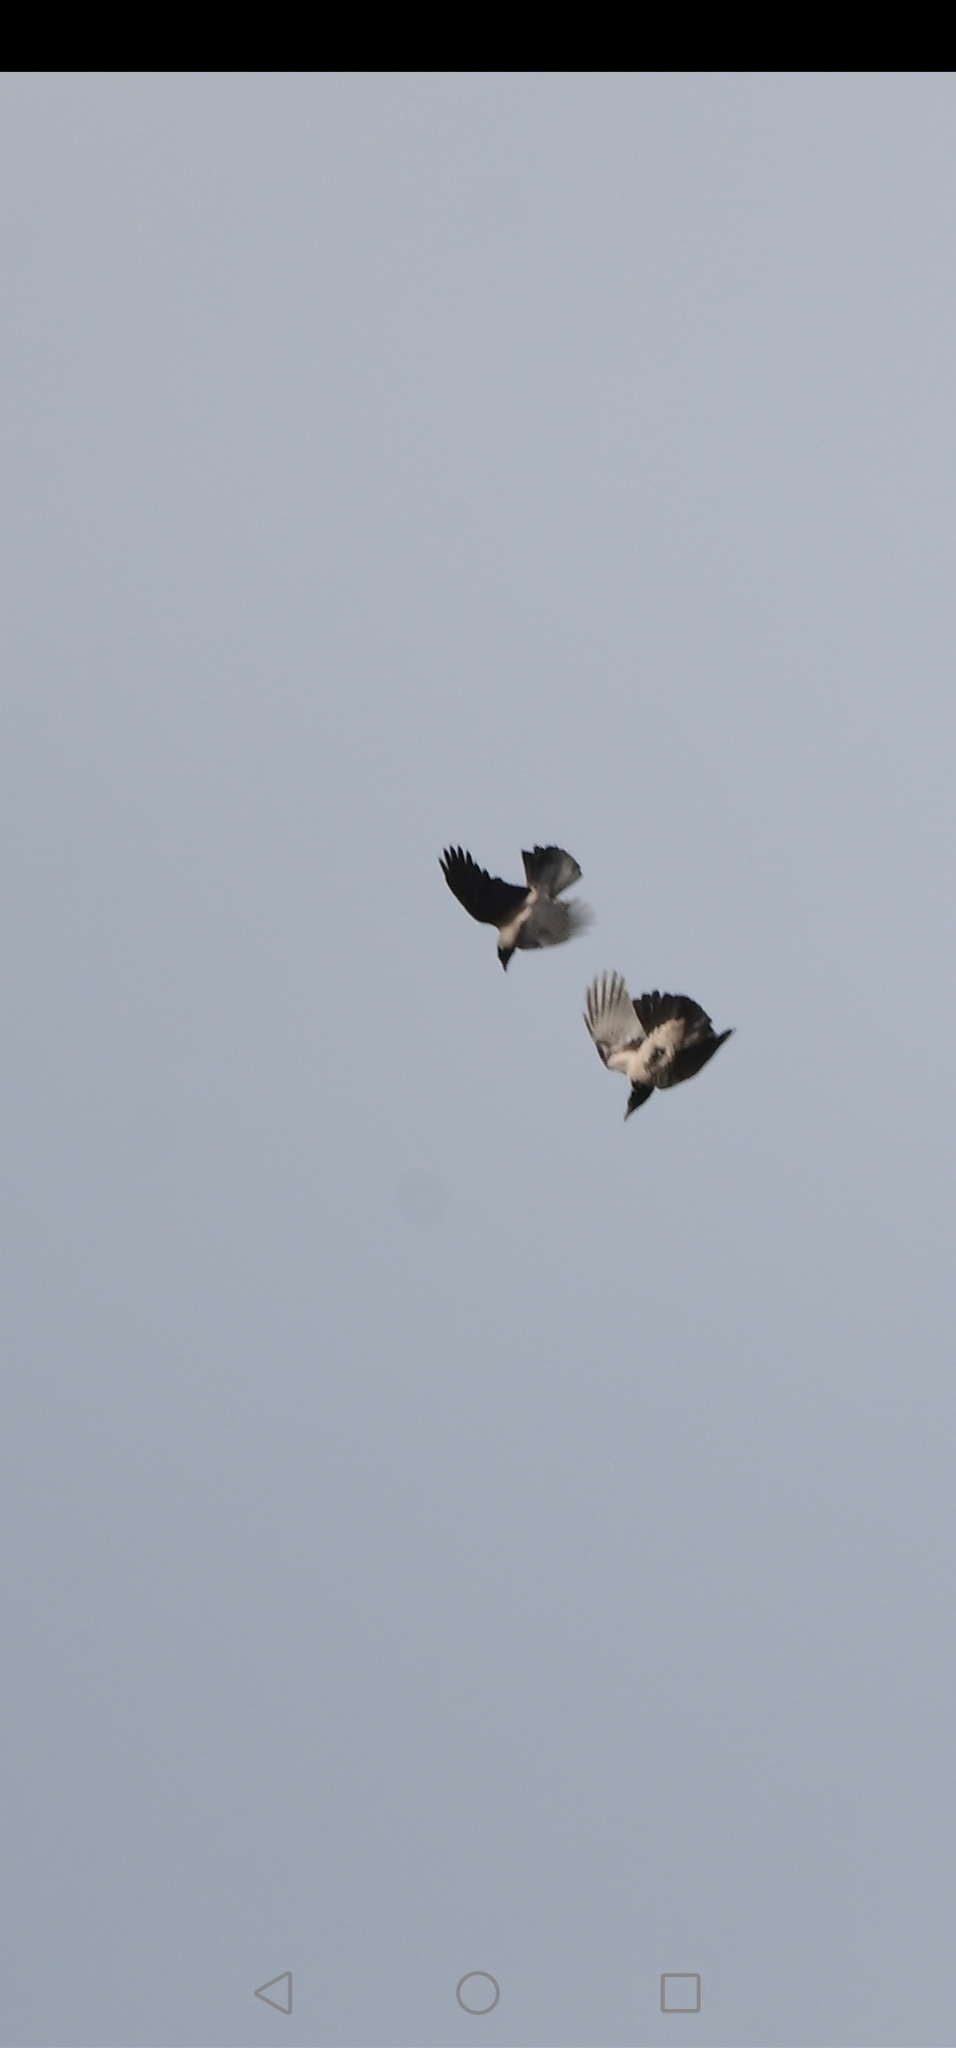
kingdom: Animalia
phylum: Chordata
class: Aves
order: Passeriformes
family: Corvidae
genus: Corvus
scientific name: Corvus cornix
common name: Hooded crow
